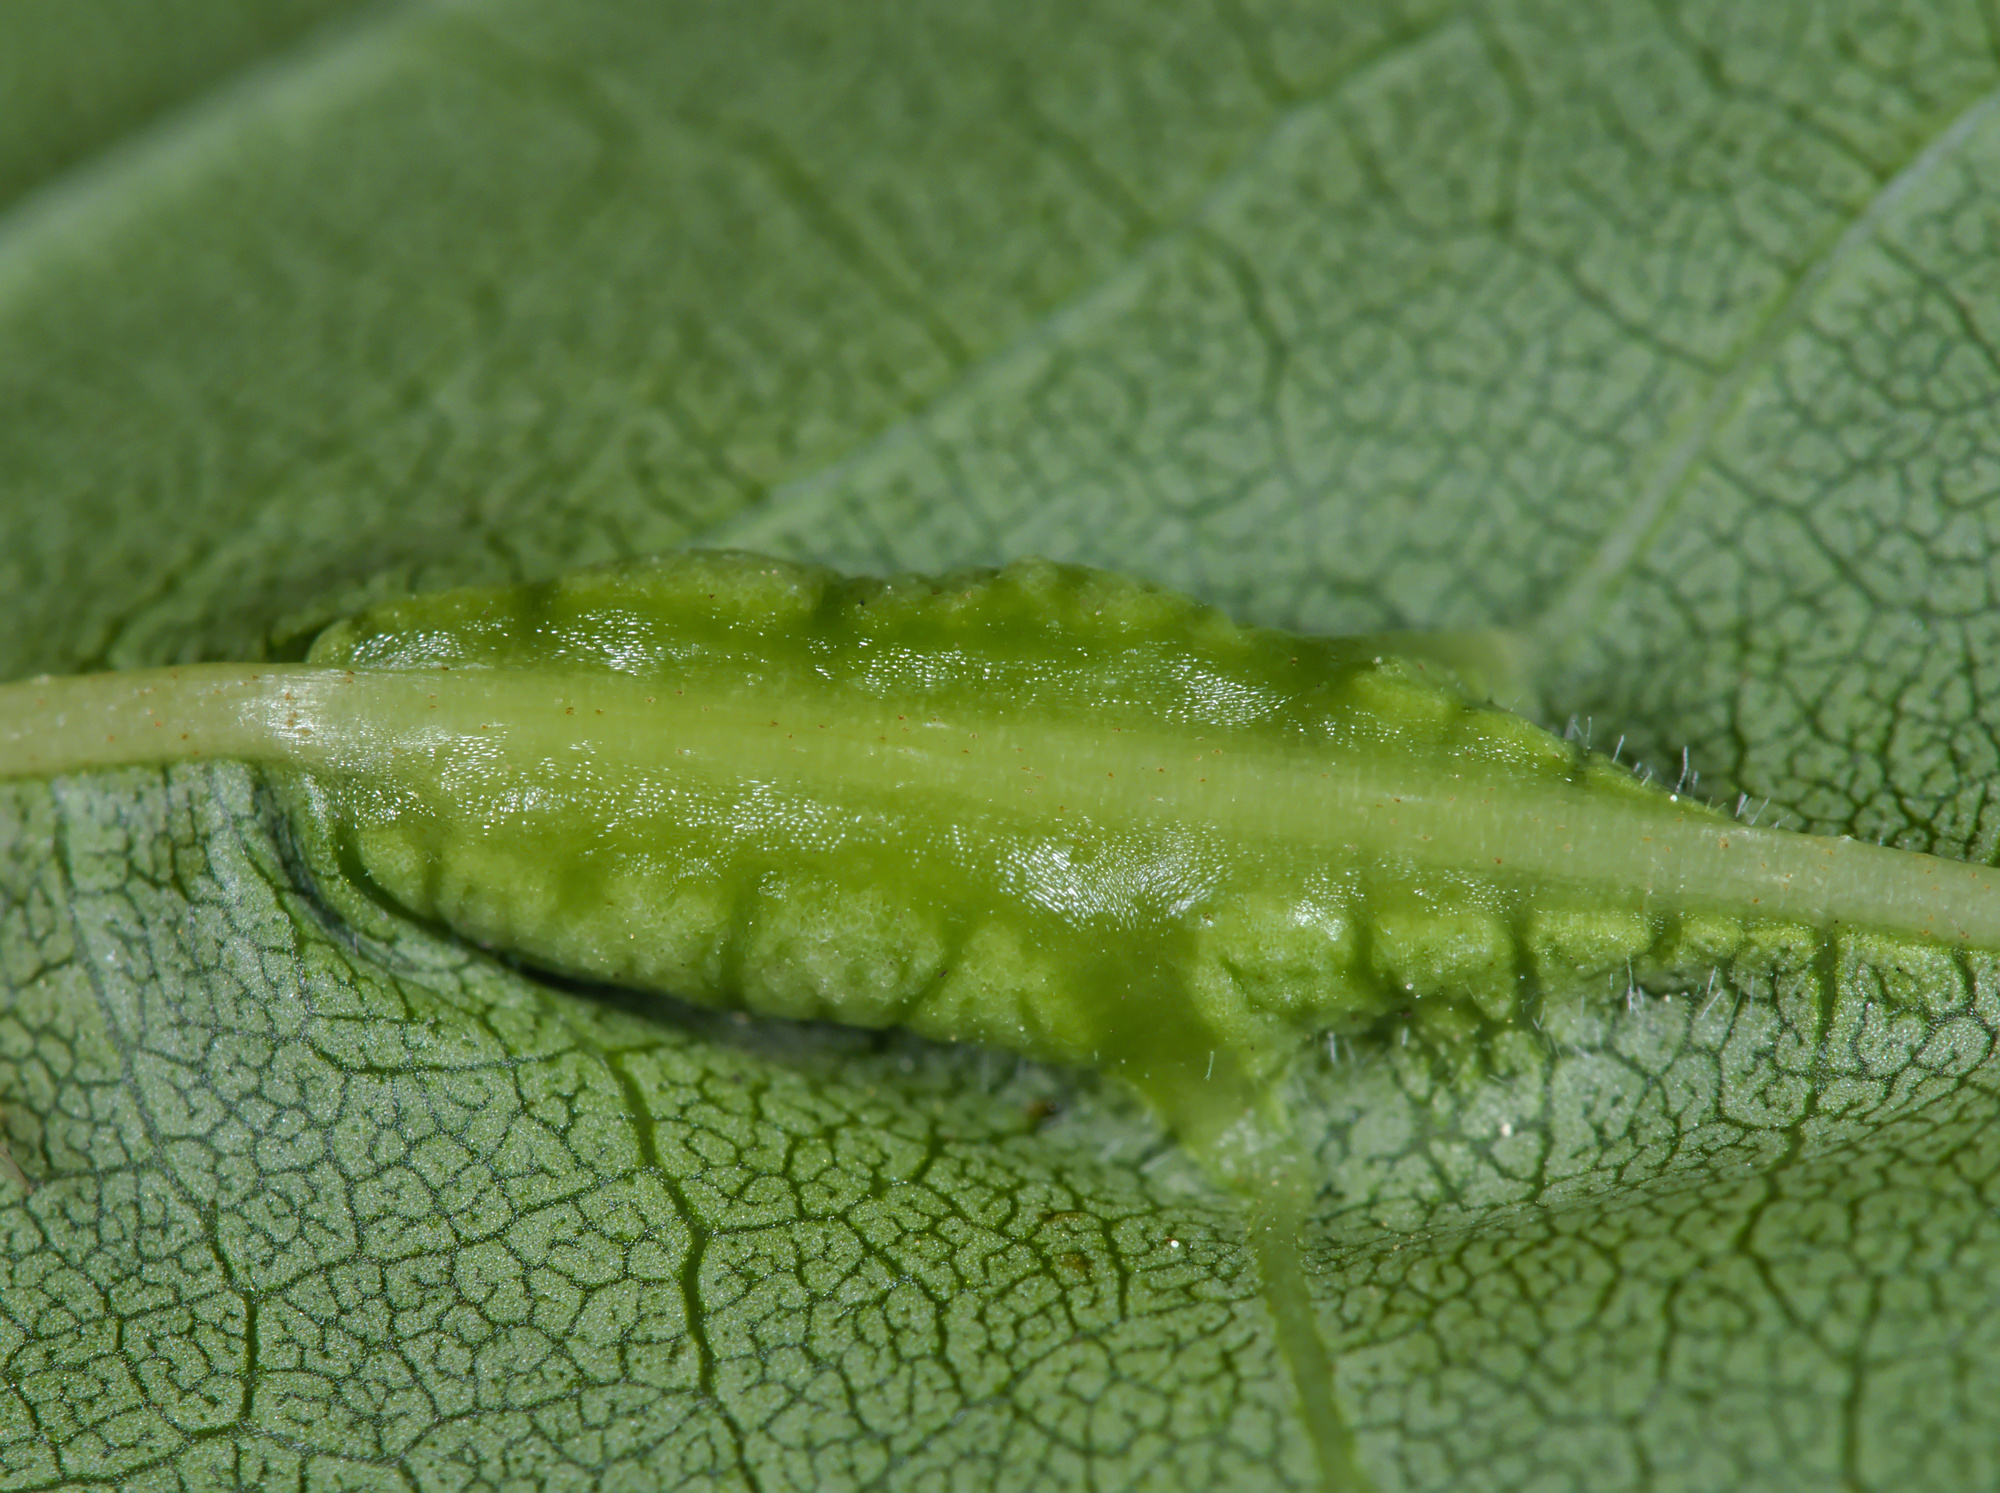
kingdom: Animalia
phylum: Arthropoda
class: Insecta
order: Diptera
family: Cecidomyiidae
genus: Dasineura
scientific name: Dasineura fraxini
